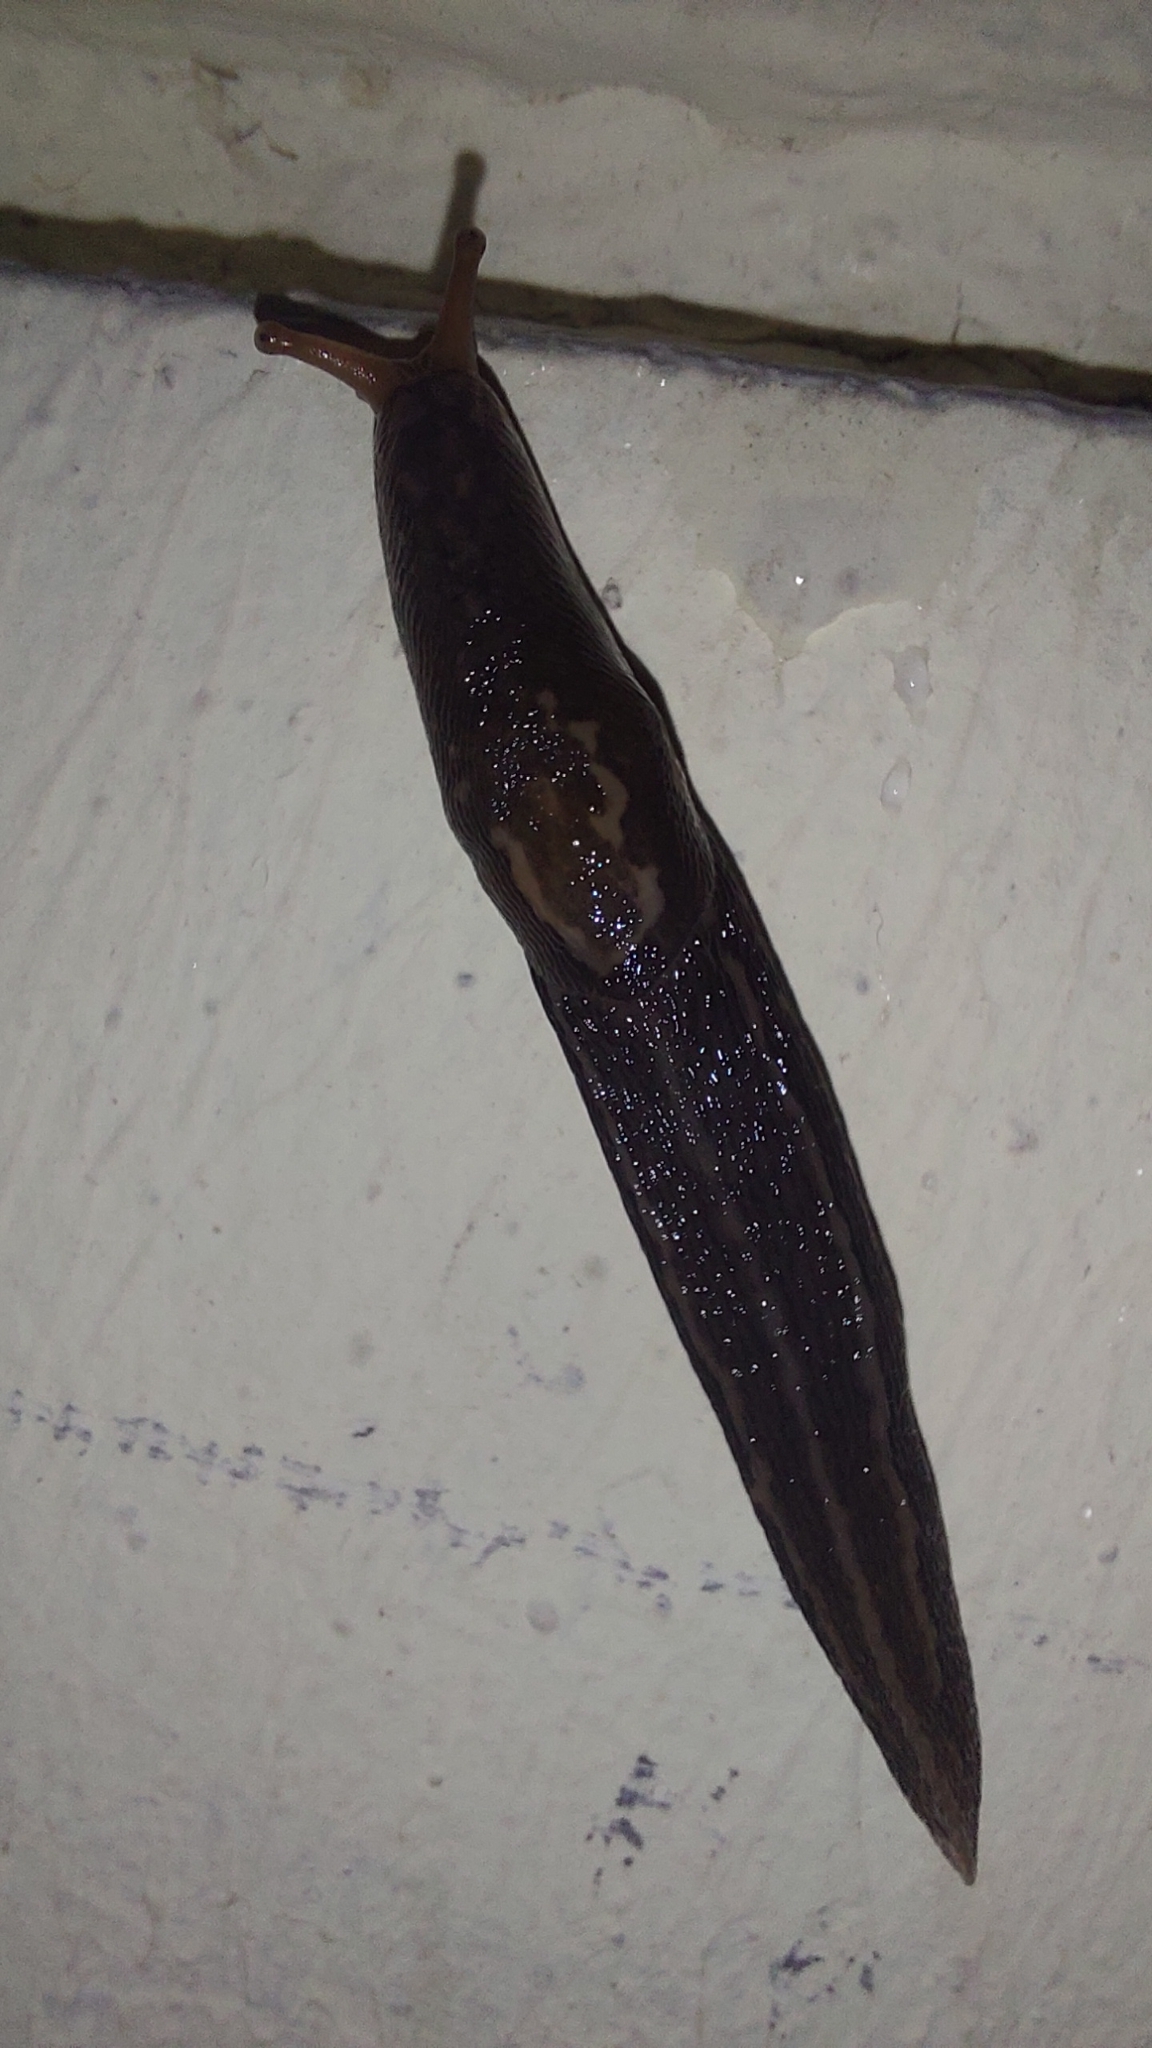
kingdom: Animalia
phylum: Mollusca
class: Gastropoda
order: Stylommatophora
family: Limacidae
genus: Limax
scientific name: Limax maximus
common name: Great grey slug
